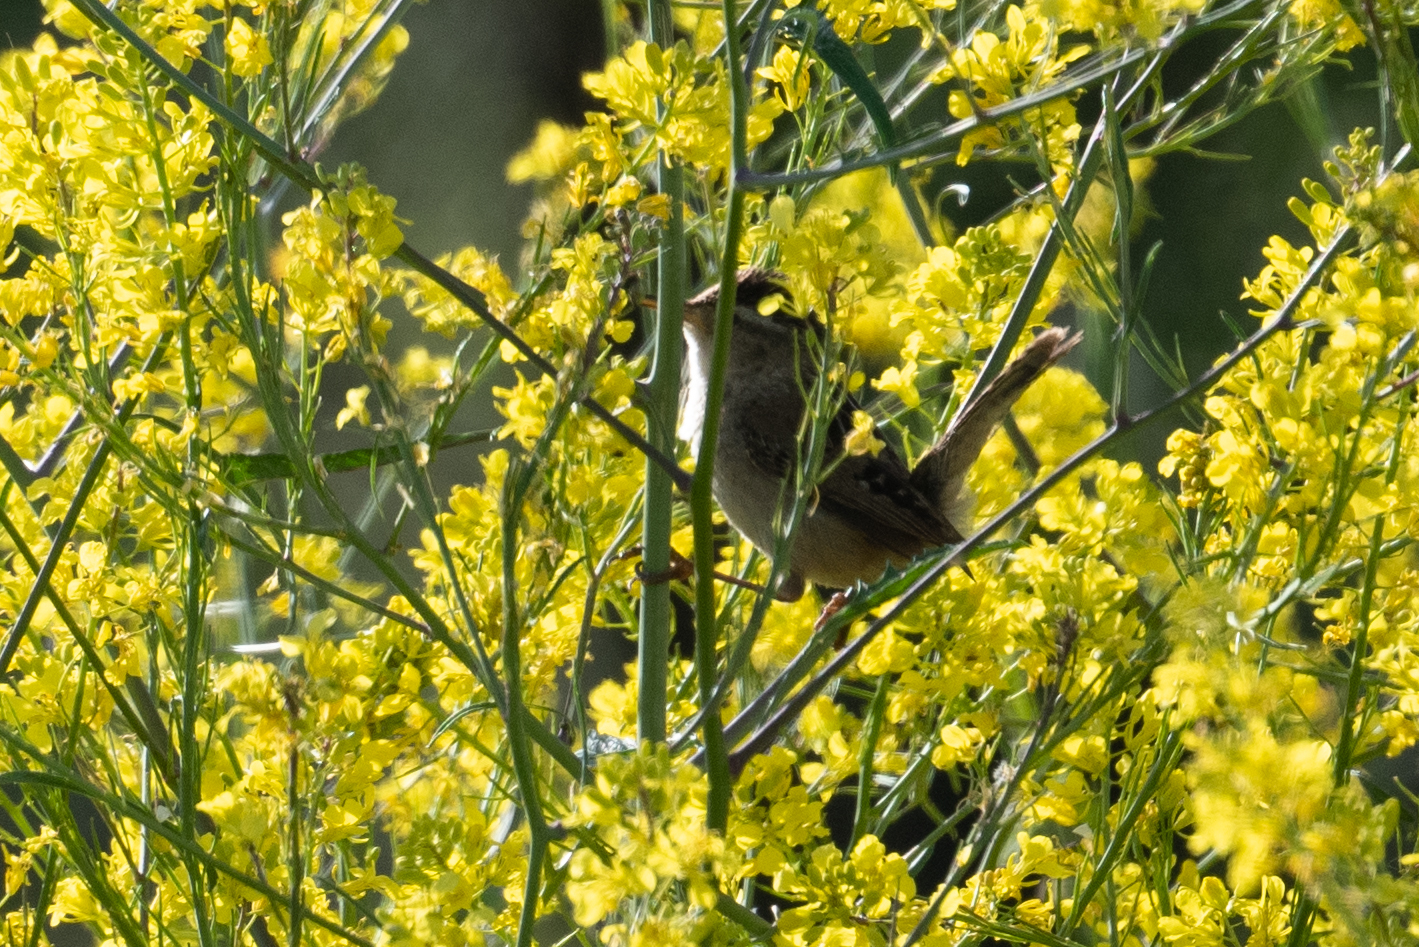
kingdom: Animalia
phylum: Chordata
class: Aves
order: Passeriformes
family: Troglodytidae
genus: Cistothorus
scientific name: Cistothorus palustris
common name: Marsh wren
